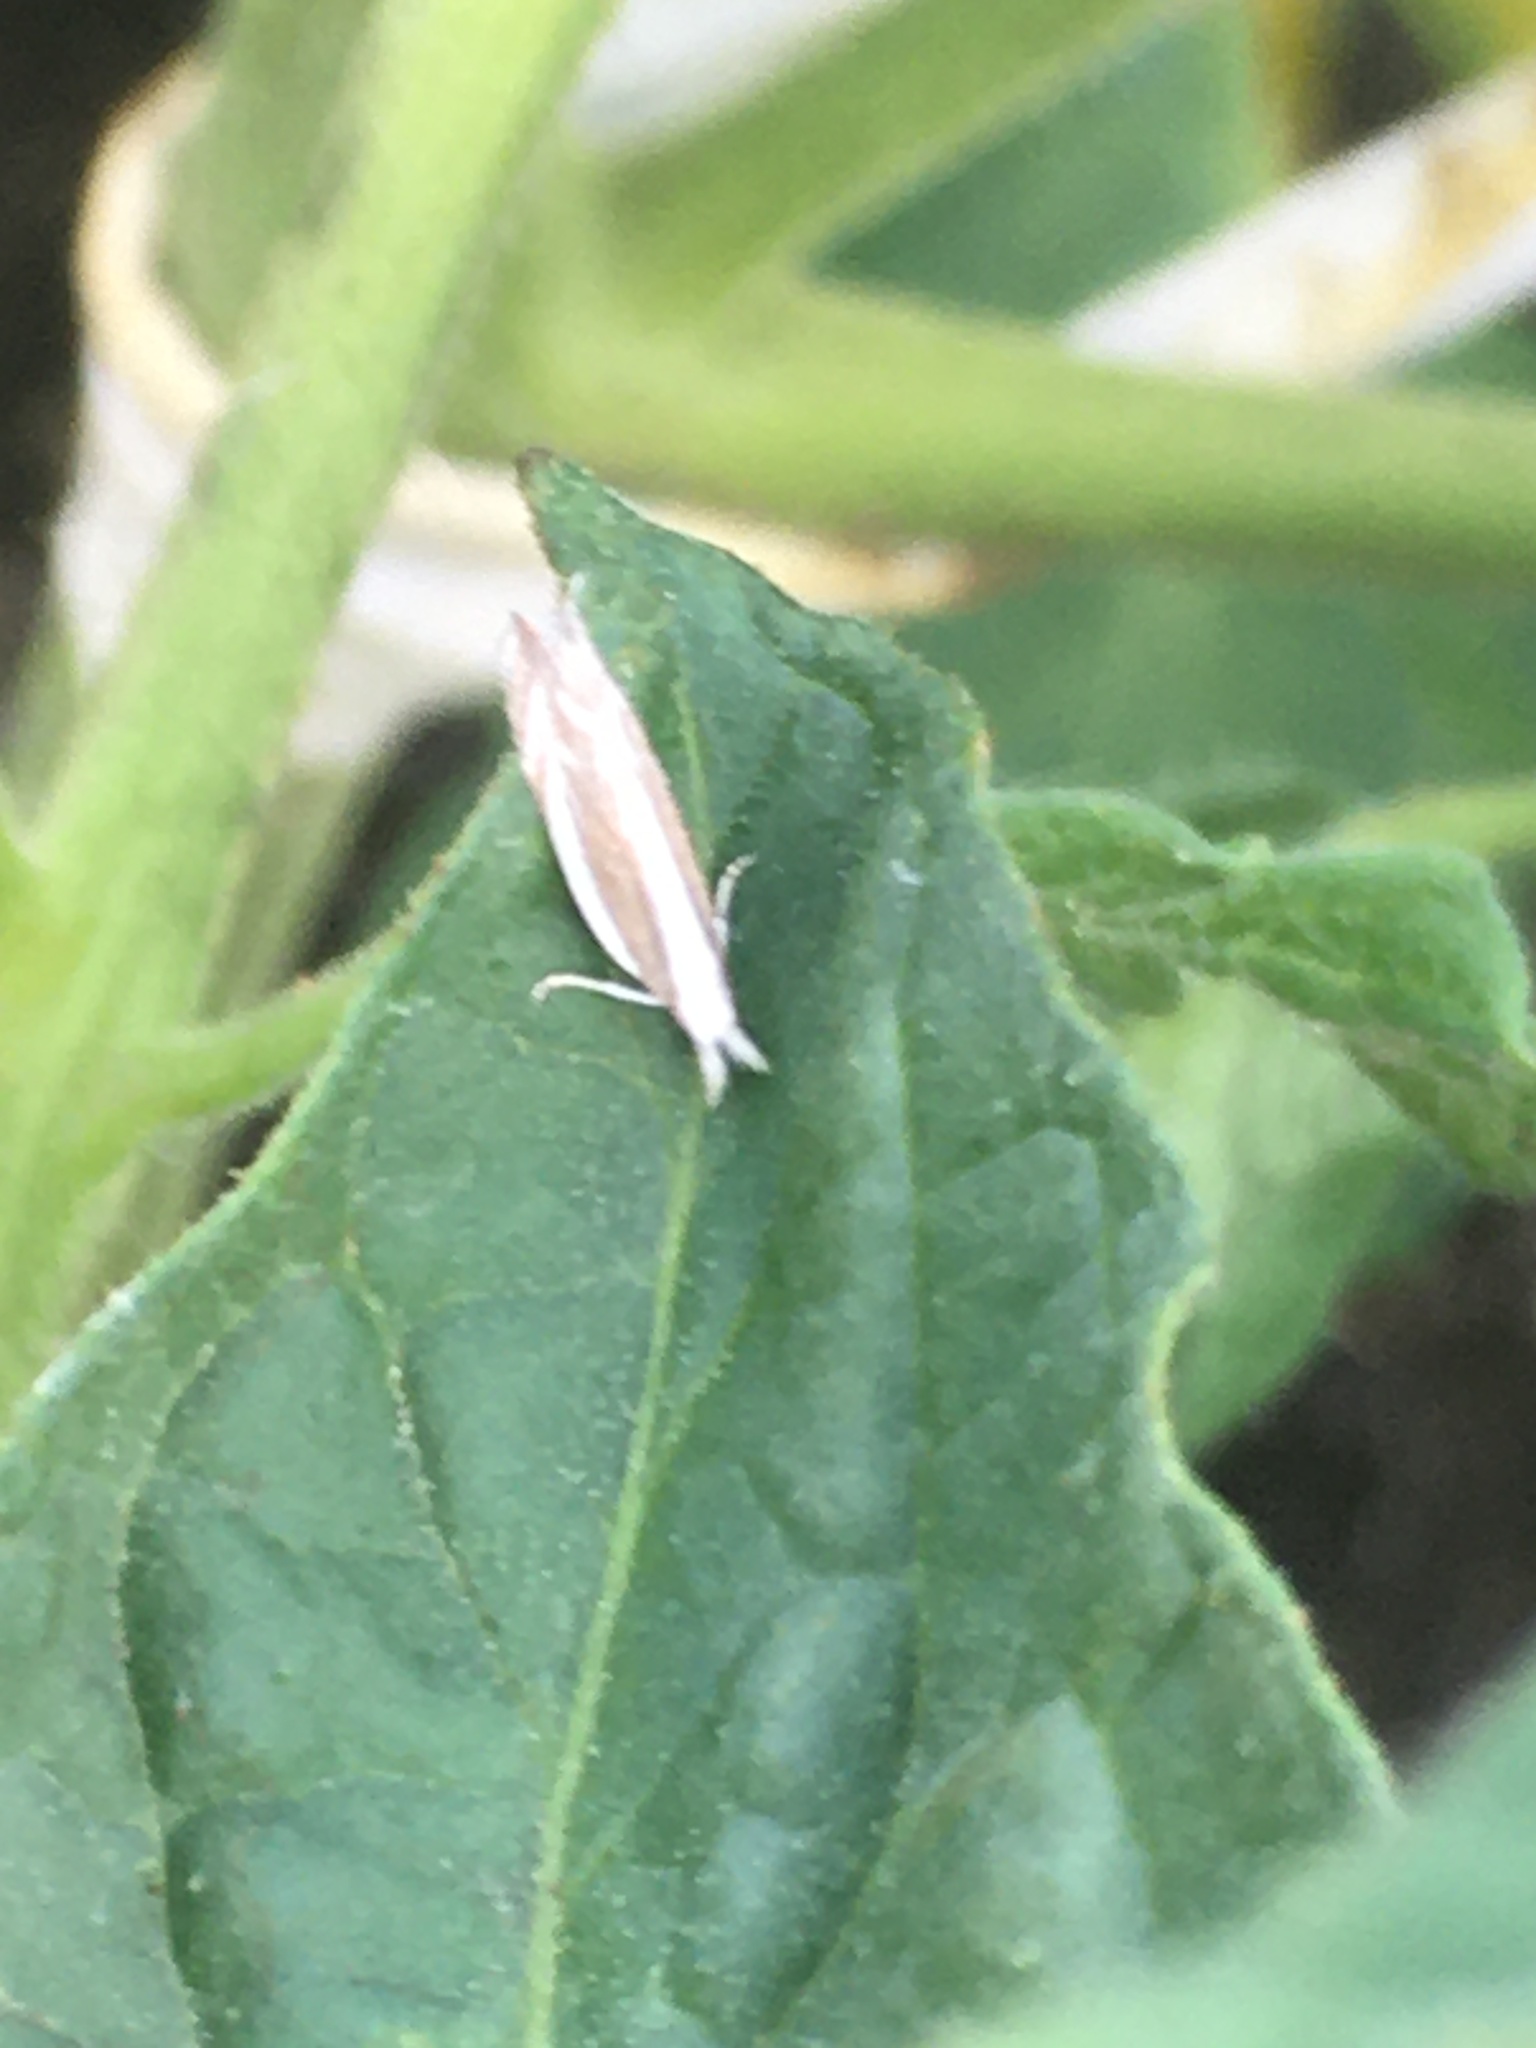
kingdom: Animalia
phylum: Arthropoda
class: Insecta
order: Lepidoptera
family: Gelechiidae
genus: Sophronia
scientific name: Sophronia chilonella
